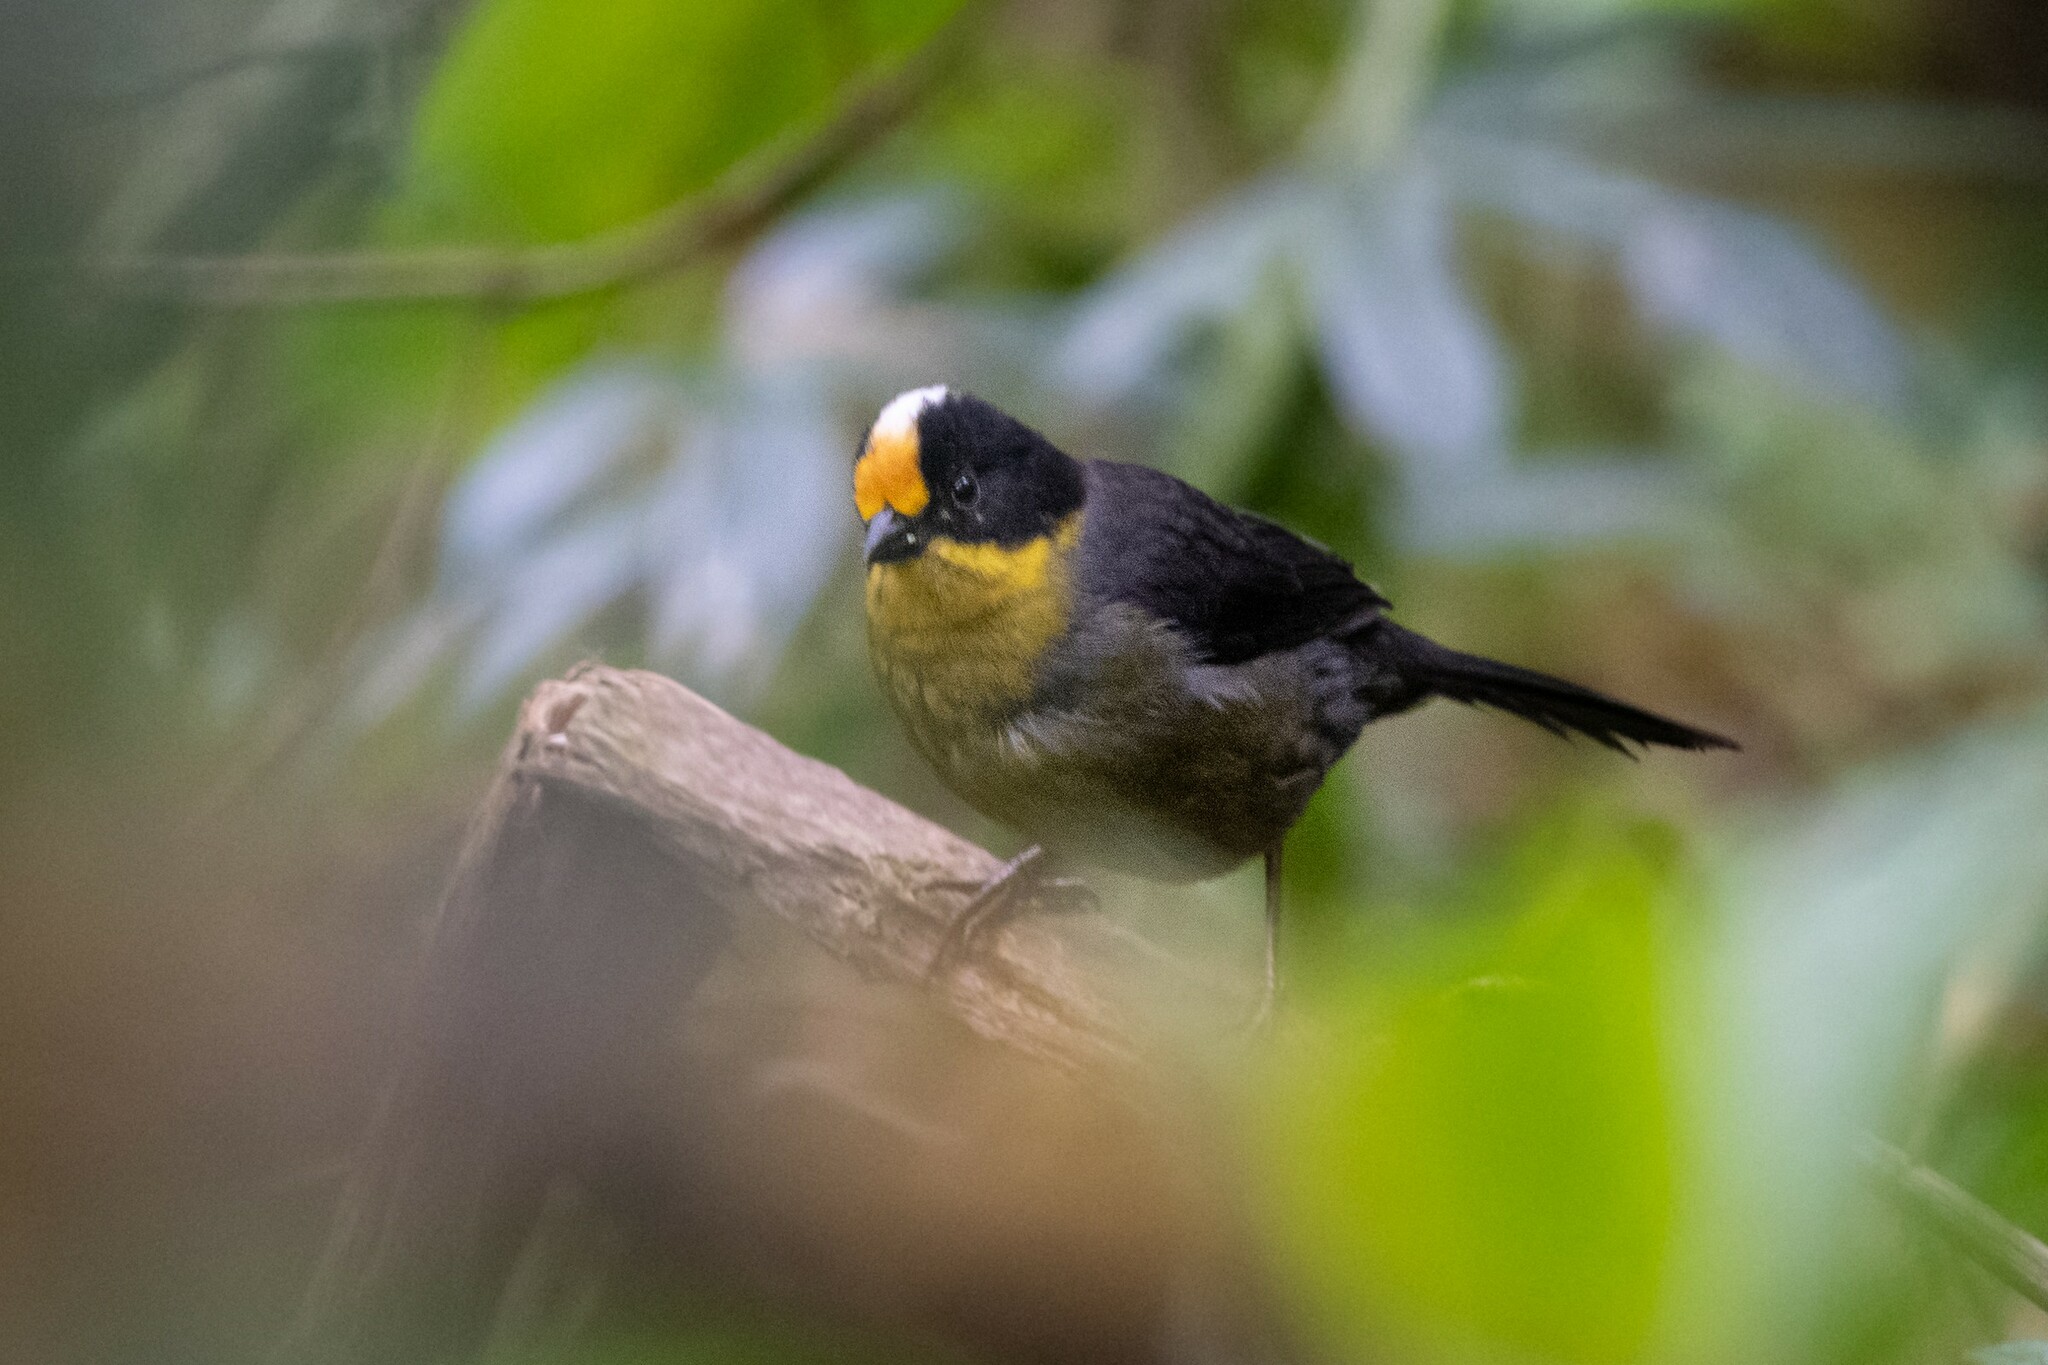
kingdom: Animalia
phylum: Chordata
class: Aves
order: Passeriformes
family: Passerellidae
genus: Atlapetes
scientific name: Atlapetes pallidinucha
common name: Pale-naped brushfinch
